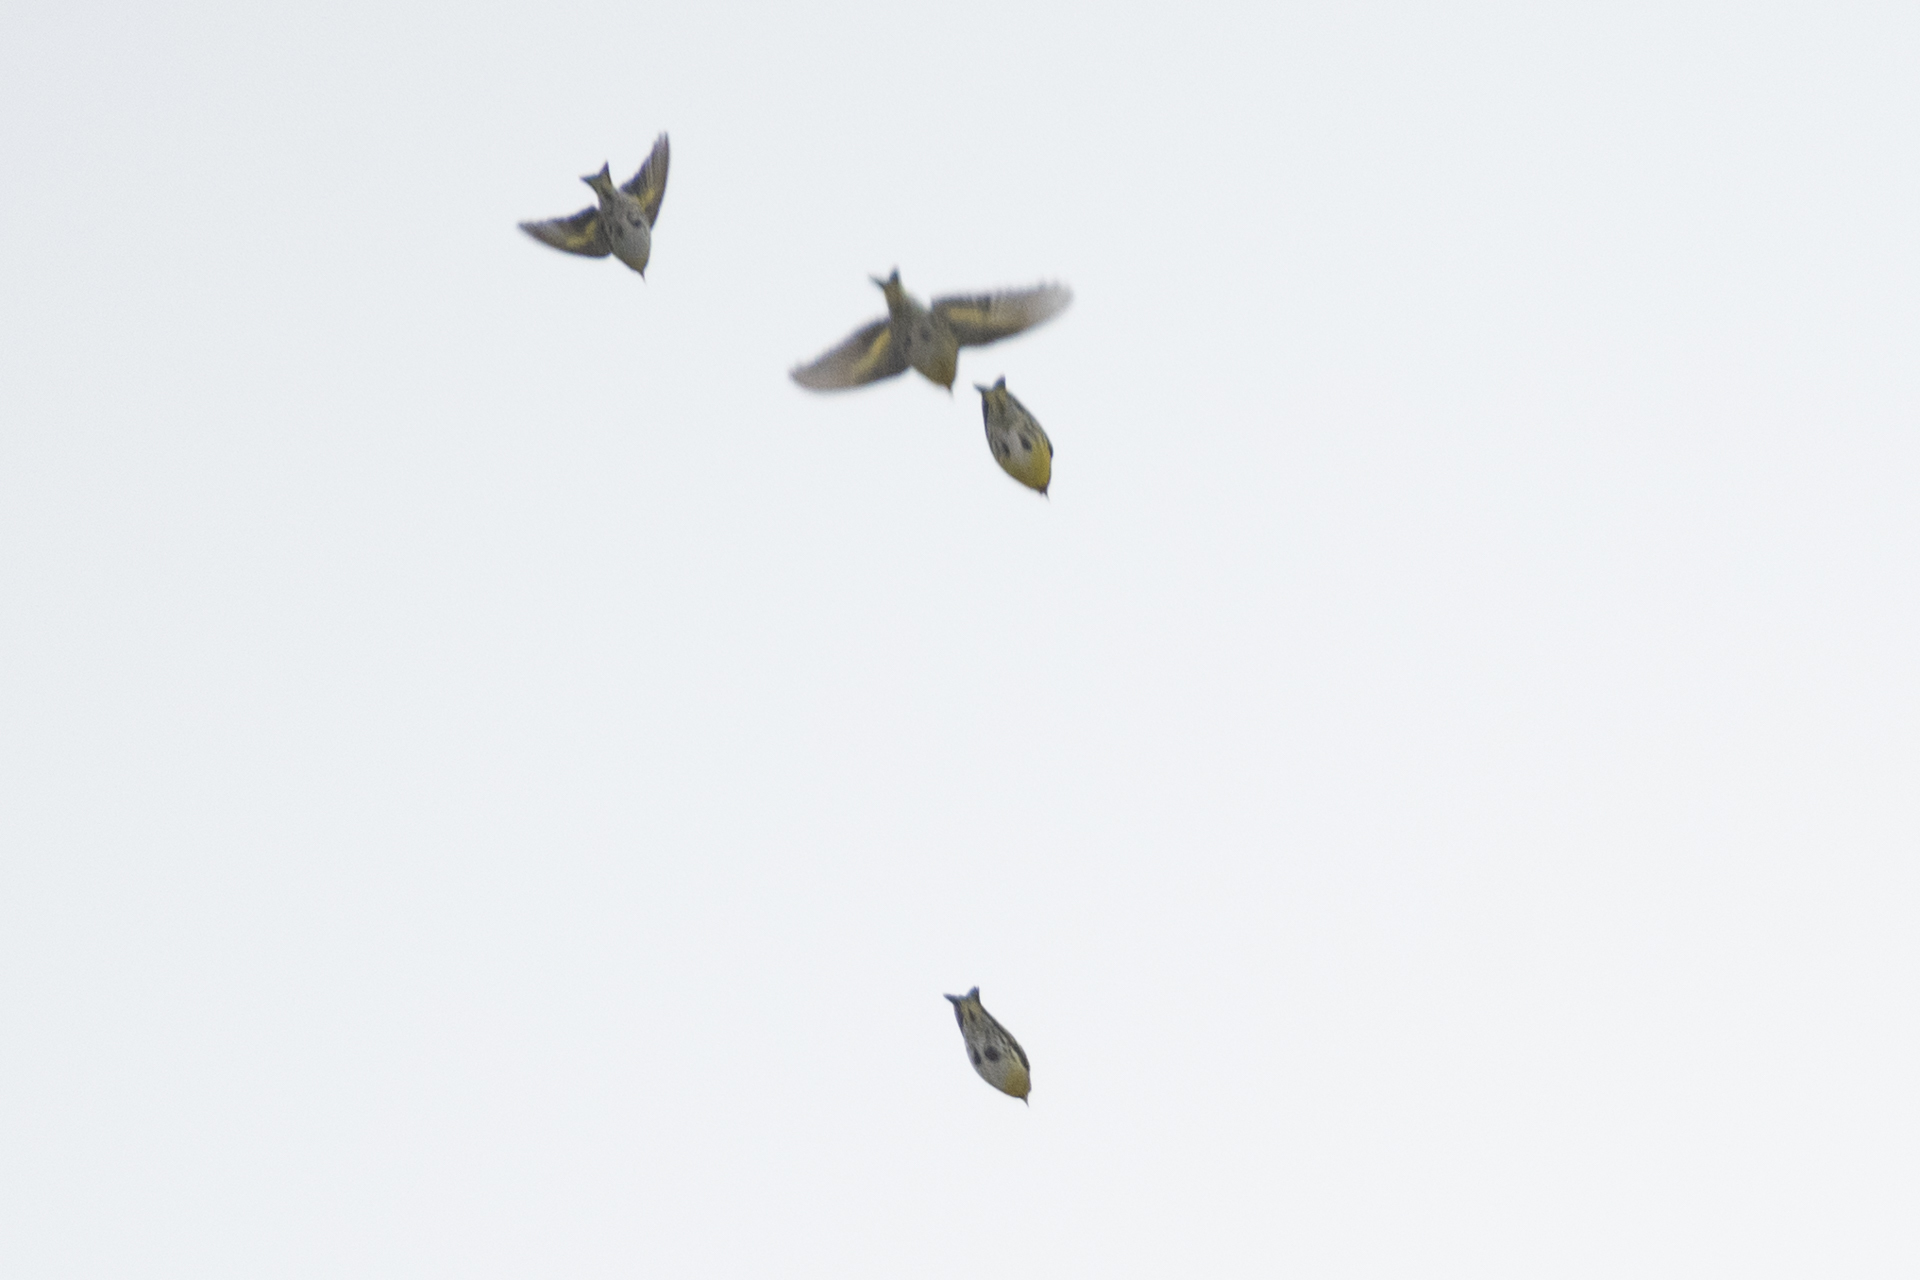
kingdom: Animalia
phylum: Chordata
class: Aves
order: Passeriformes
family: Fringillidae
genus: Spinus
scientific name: Spinus spinus
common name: Eurasian siskin
